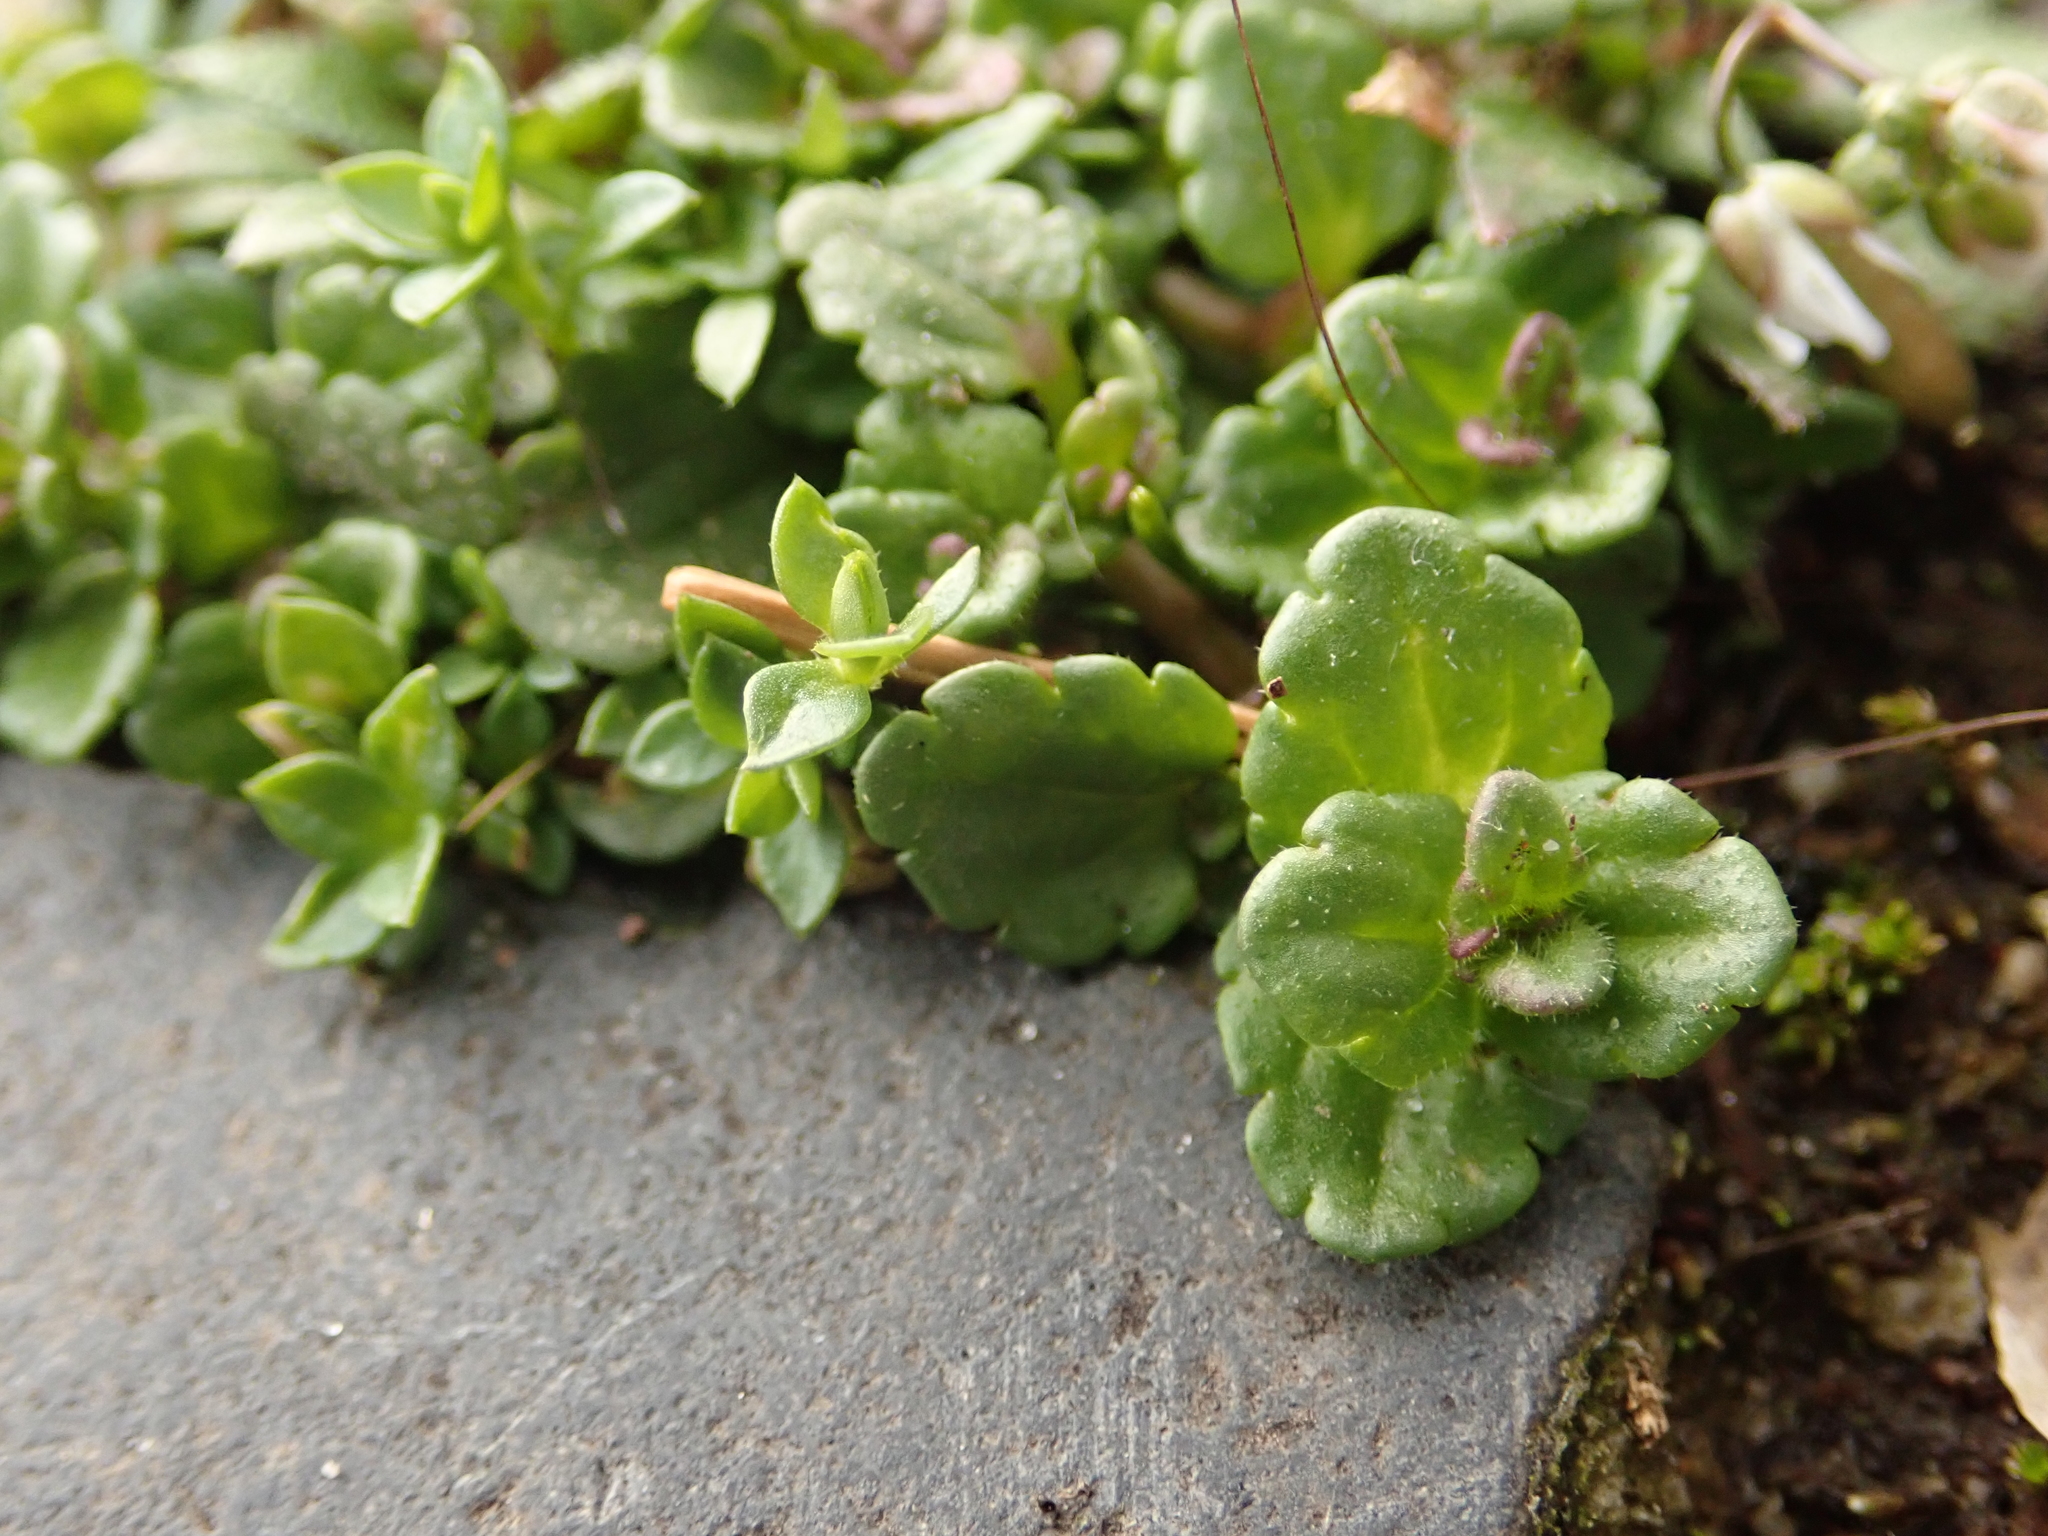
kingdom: Plantae
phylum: Tracheophyta
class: Magnoliopsida
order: Lamiales
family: Plantaginaceae
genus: Veronica
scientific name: Veronica arvensis
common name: Corn speedwell
